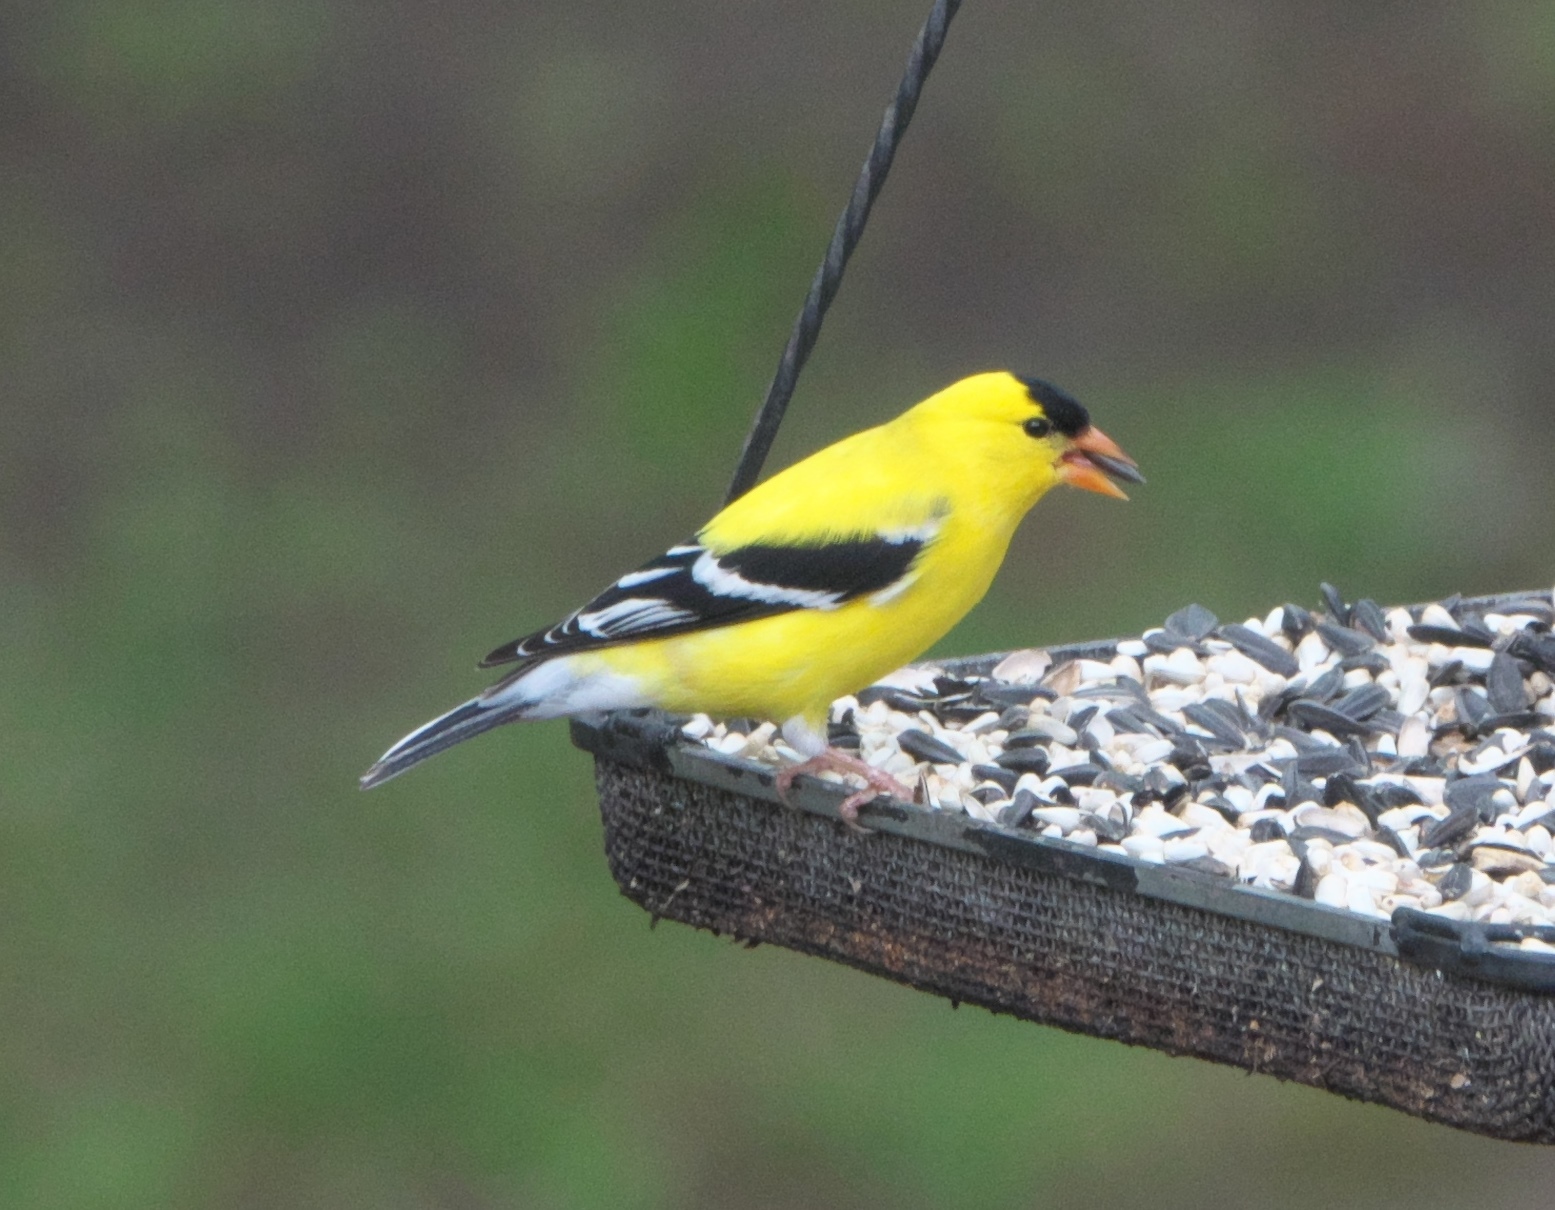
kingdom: Animalia
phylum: Chordata
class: Aves
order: Passeriformes
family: Fringillidae
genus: Spinus
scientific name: Spinus tristis
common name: American goldfinch
